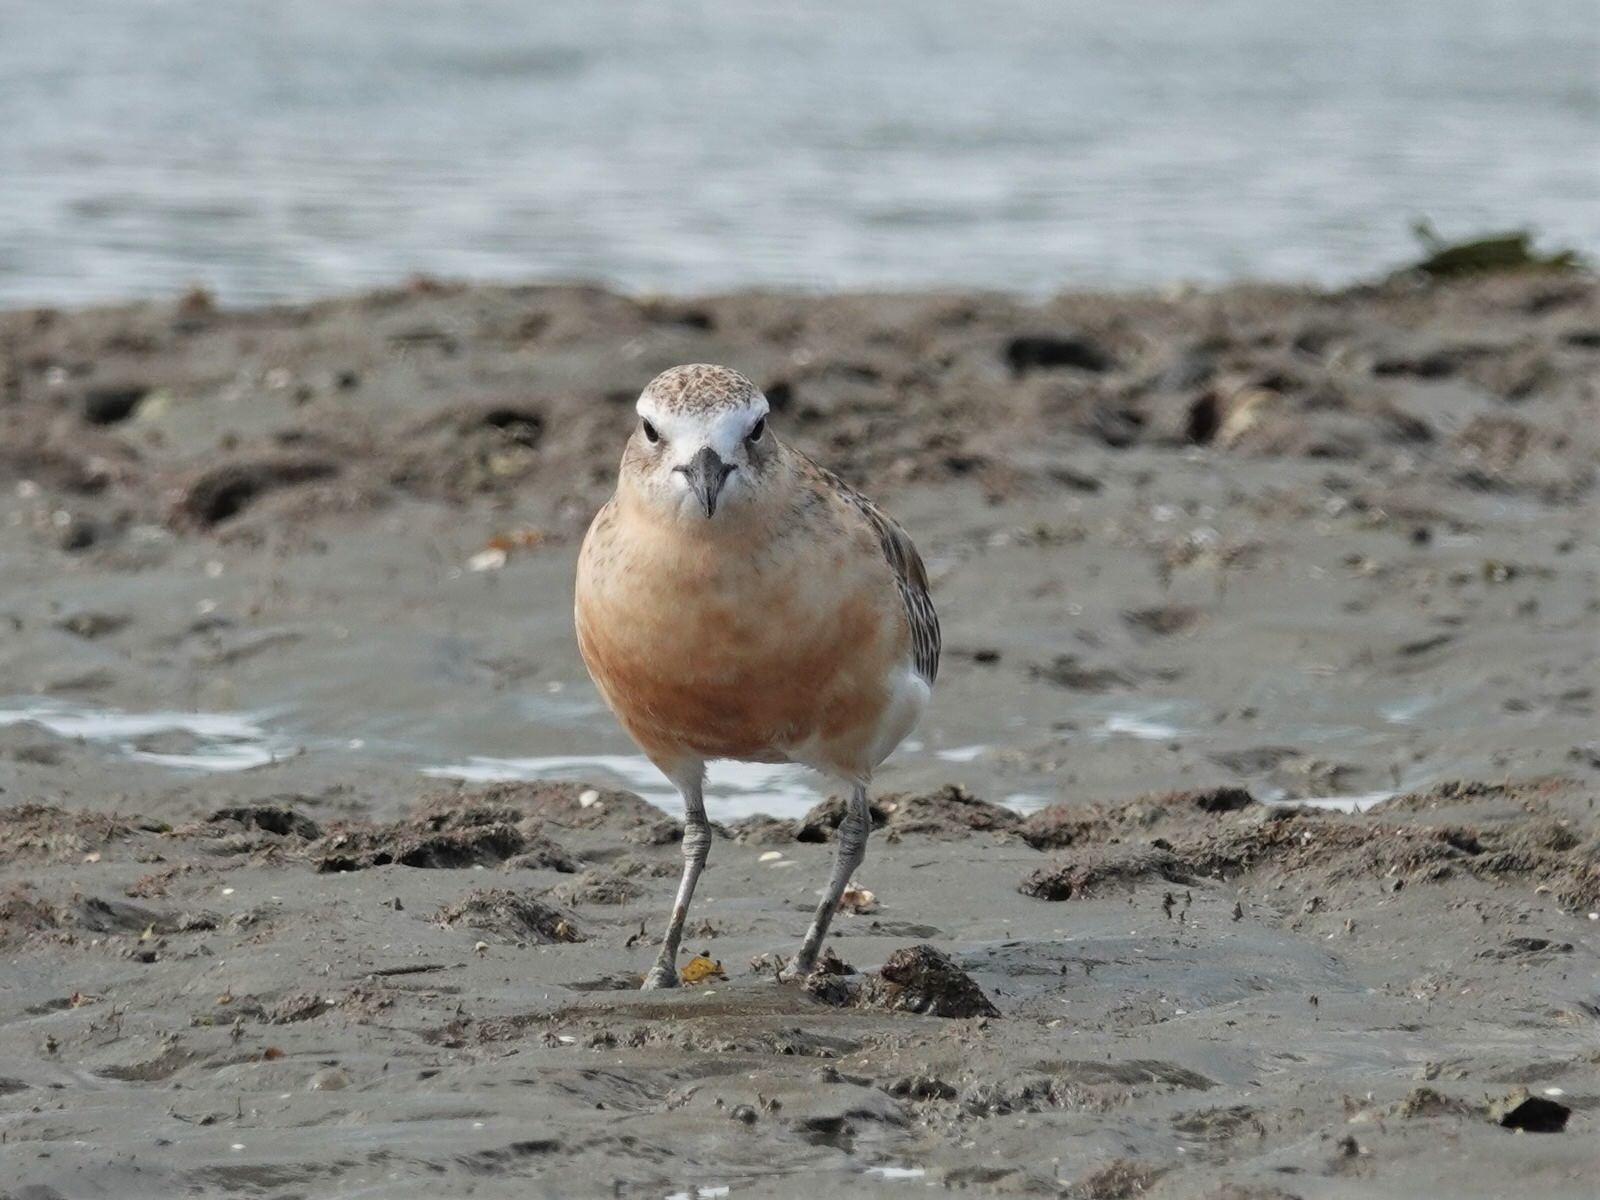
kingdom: Animalia
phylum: Chordata
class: Aves
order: Charadriiformes
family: Charadriidae
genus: Anarhynchus
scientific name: Anarhynchus
